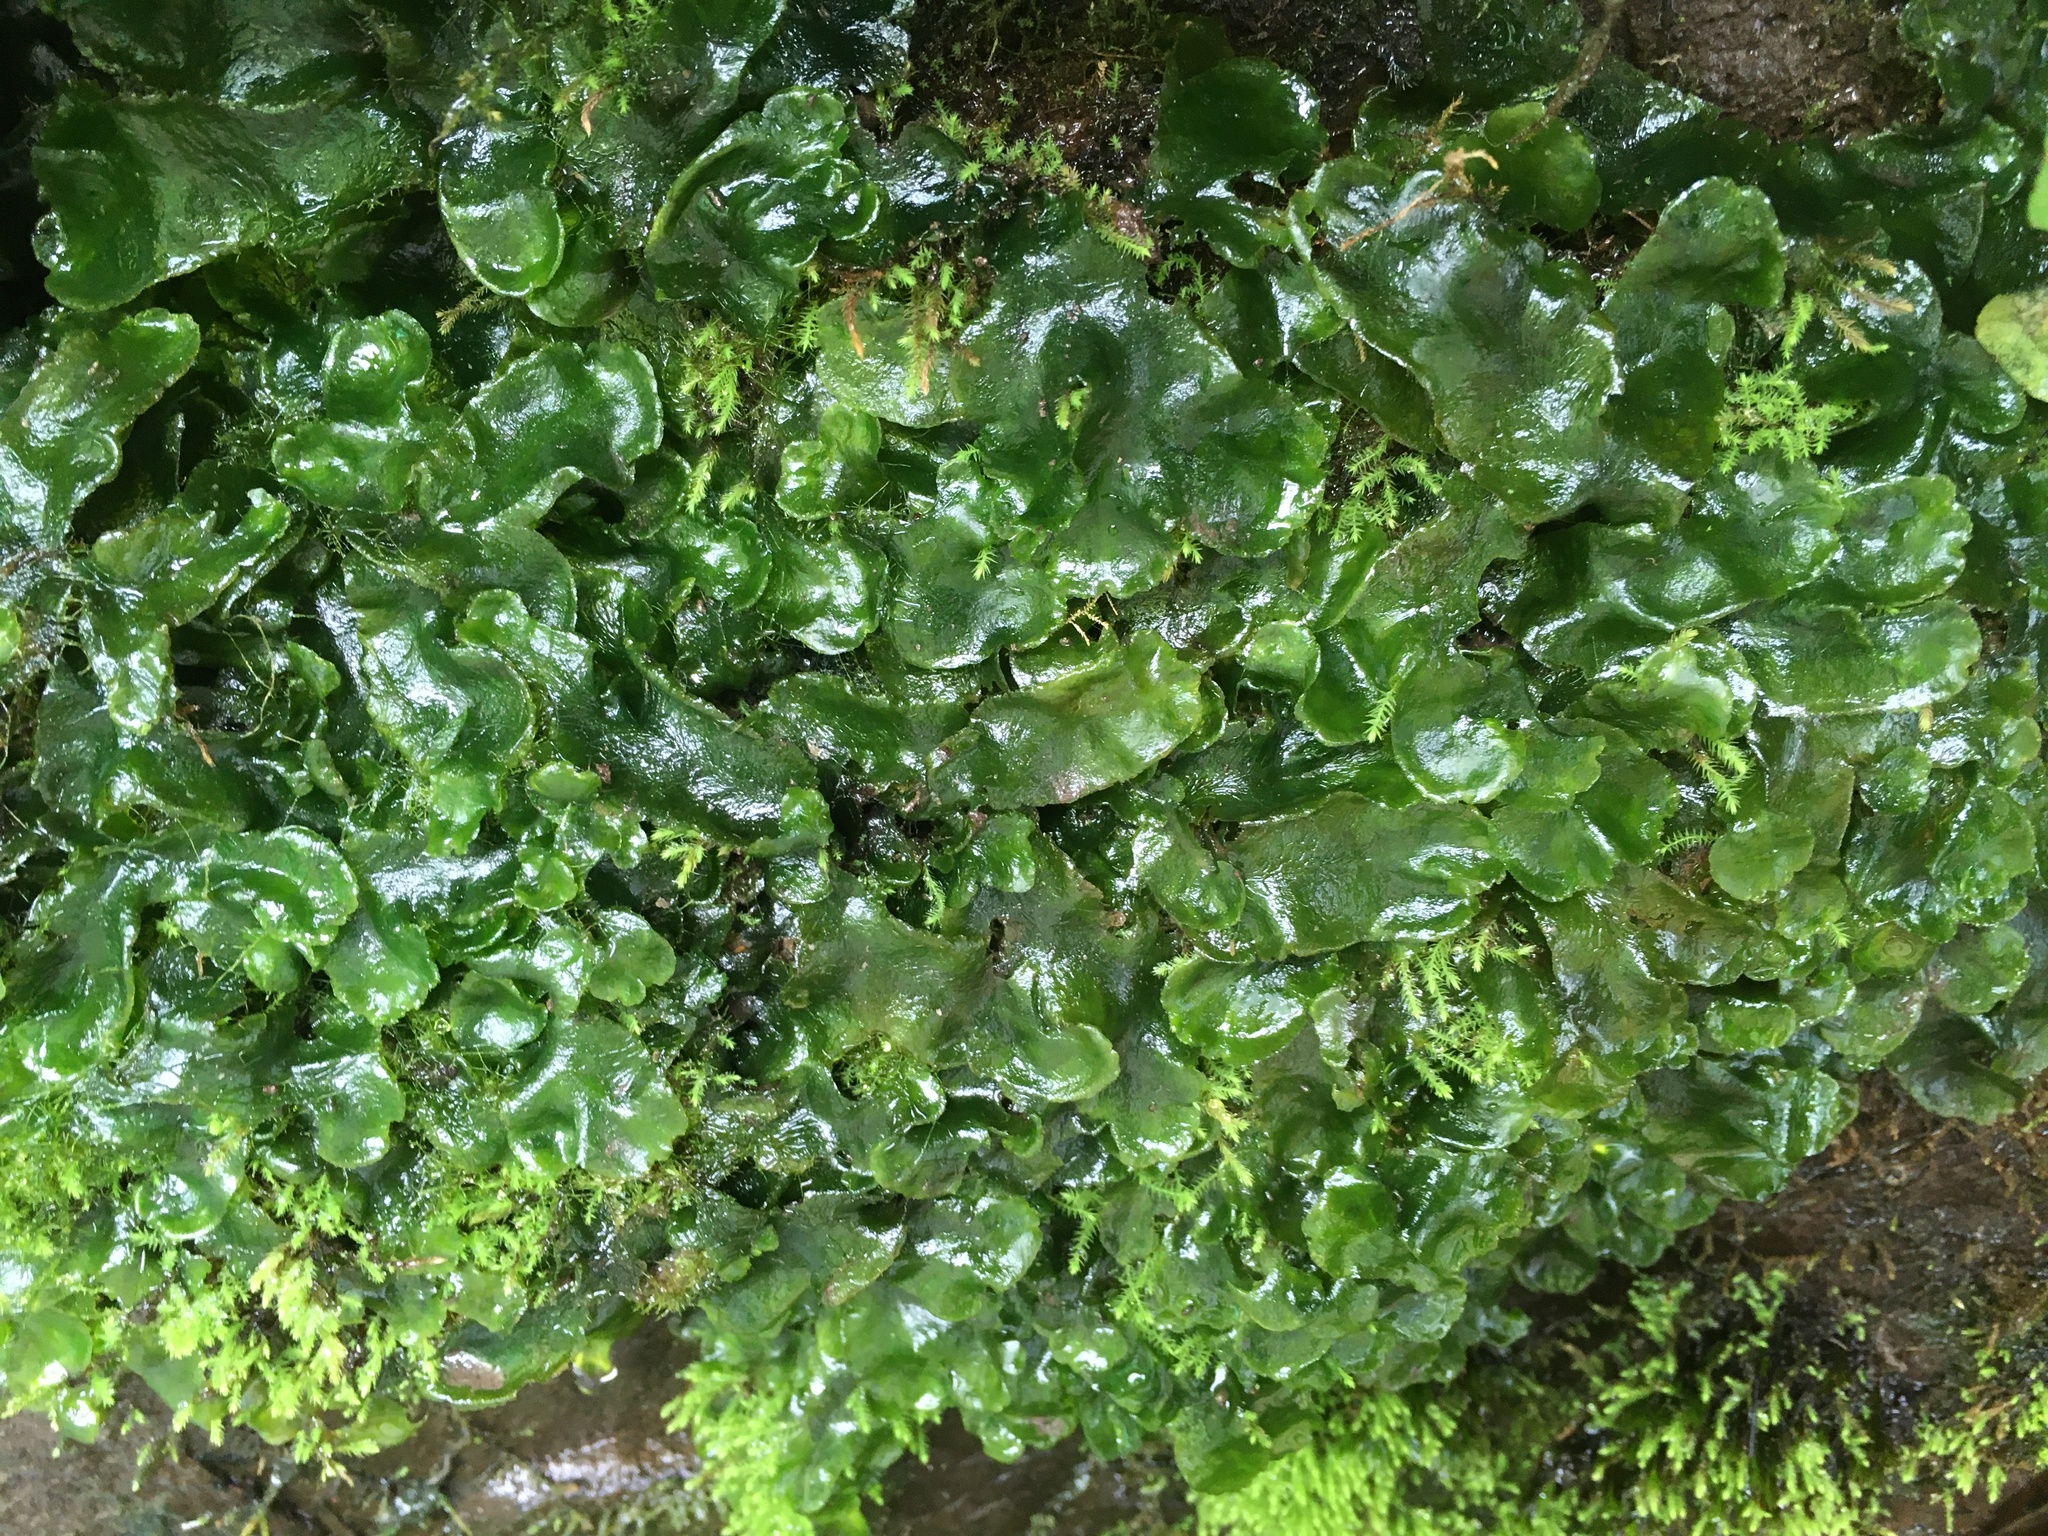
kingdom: Plantae
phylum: Marchantiophyta
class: Marchantiopsida
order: Marchantiales
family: Dumortieraceae
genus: Dumortiera
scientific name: Dumortiera hirsuta
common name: Dumortier's liverwort
